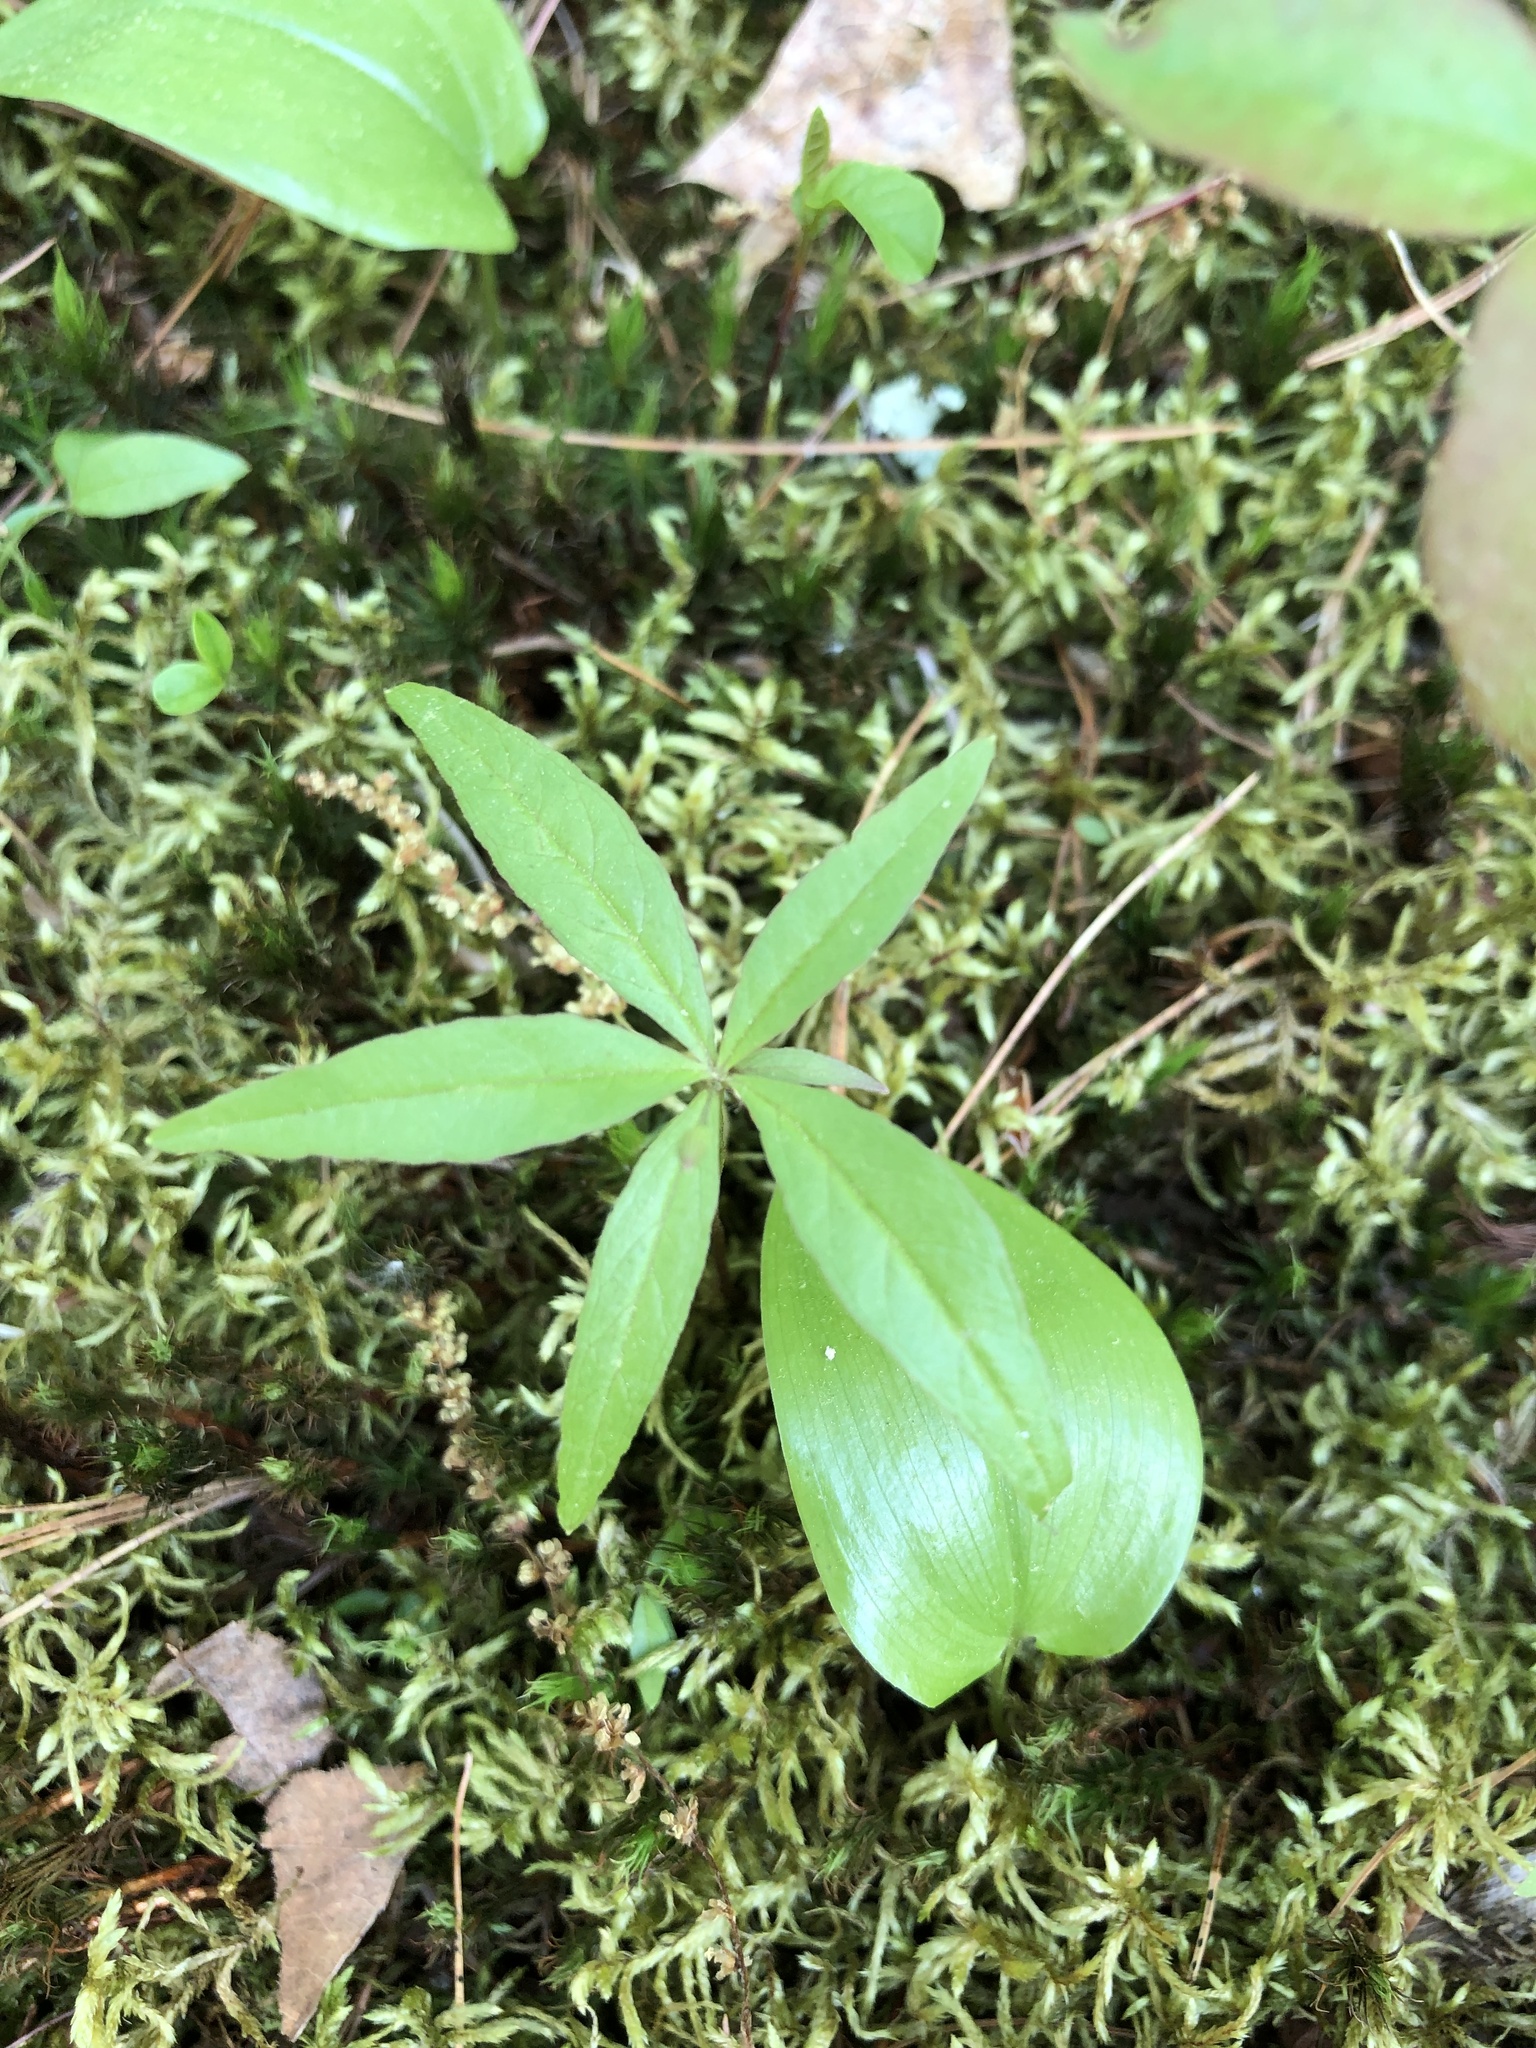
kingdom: Plantae
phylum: Tracheophyta
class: Magnoliopsida
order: Ericales
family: Primulaceae
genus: Lysimachia
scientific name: Lysimachia borealis
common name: American starflower
